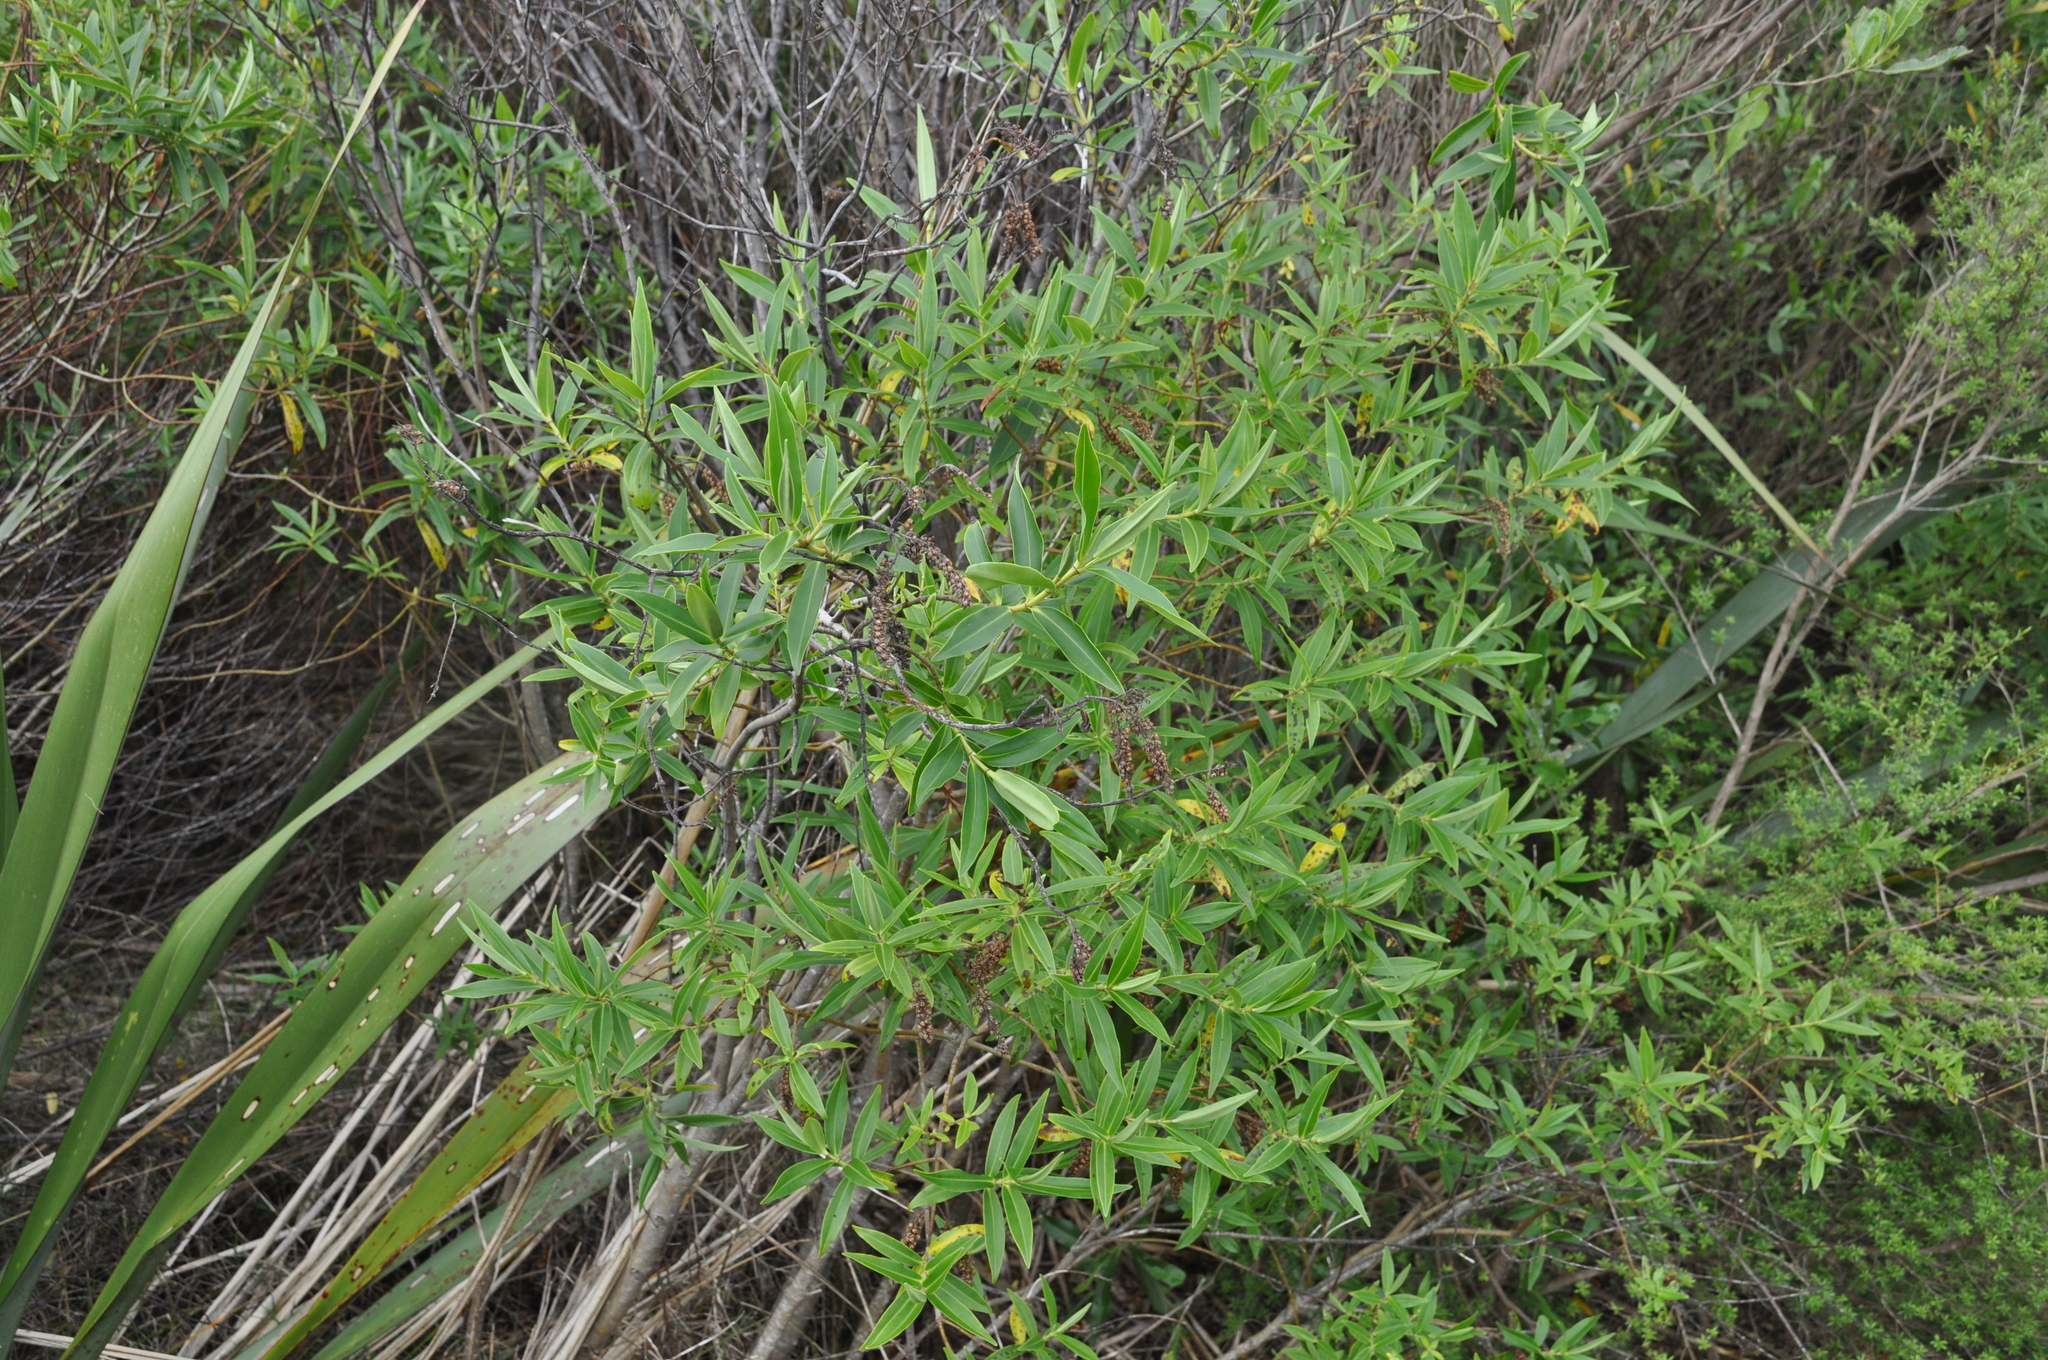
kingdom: Plantae
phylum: Tracheophyta
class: Magnoliopsida
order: Lamiales
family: Plantaginaceae
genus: Veronica
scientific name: Veronica stricta
